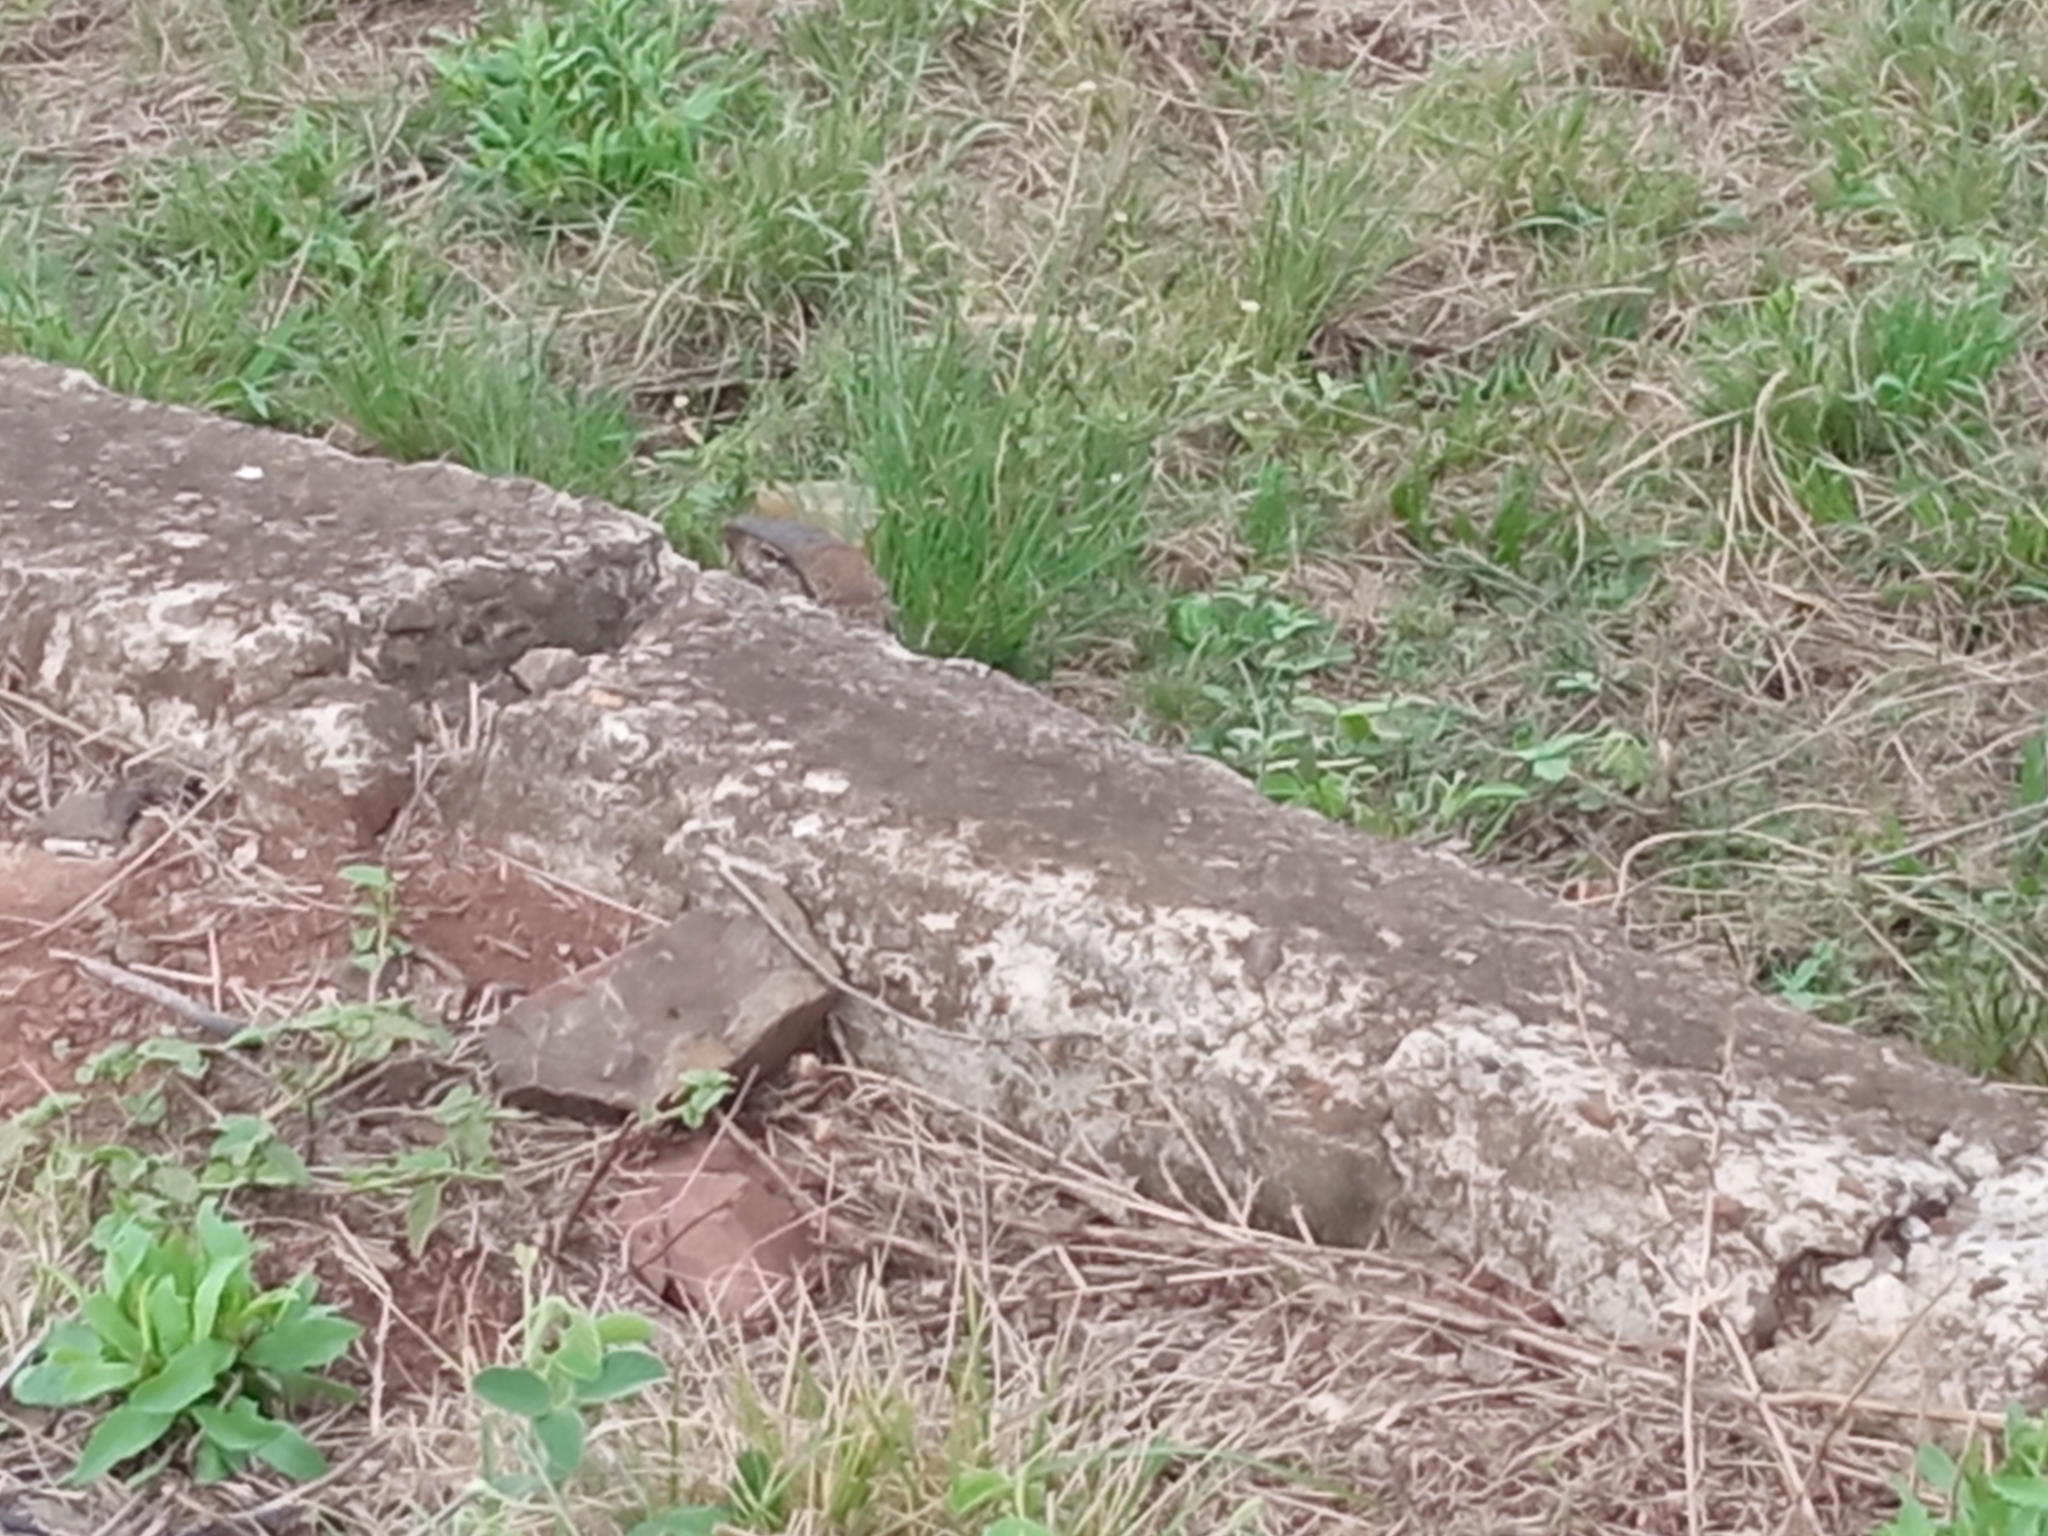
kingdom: Animalia
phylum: Chordata
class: Squamata
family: Teiidae
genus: Salvator
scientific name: Salvator merianae
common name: Argentine black and white tegu
